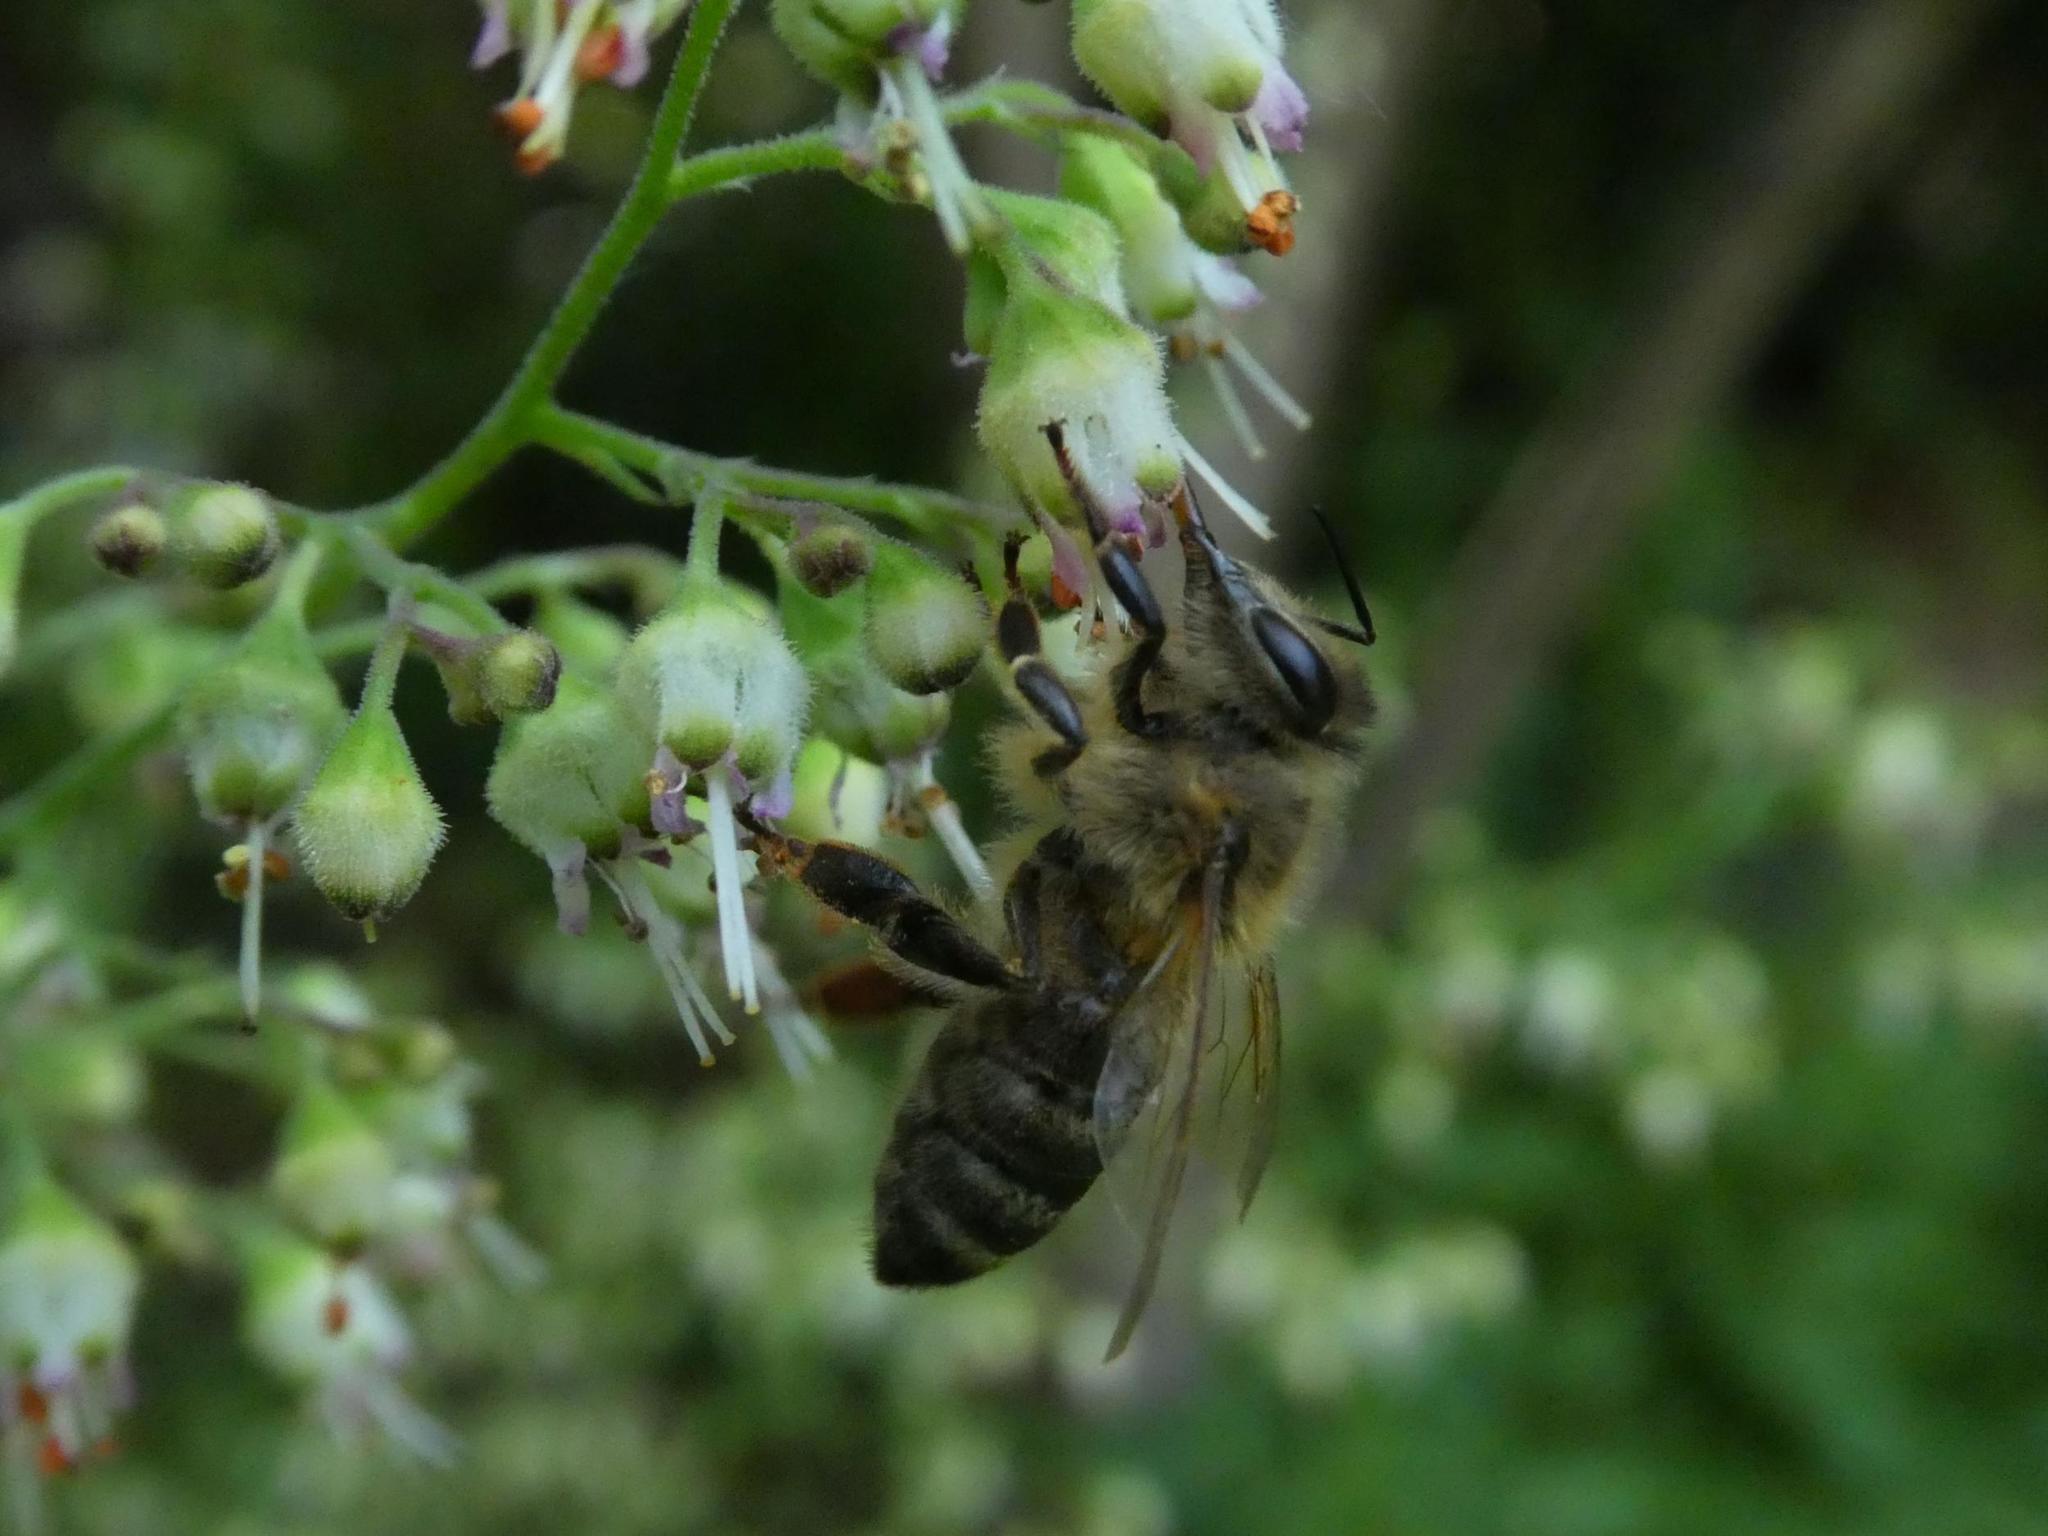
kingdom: Animalia
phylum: Arthropoda
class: Insecta
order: Hymenoptera
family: Apidae
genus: Apis
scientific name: Apis mellifera
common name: Honey bee
